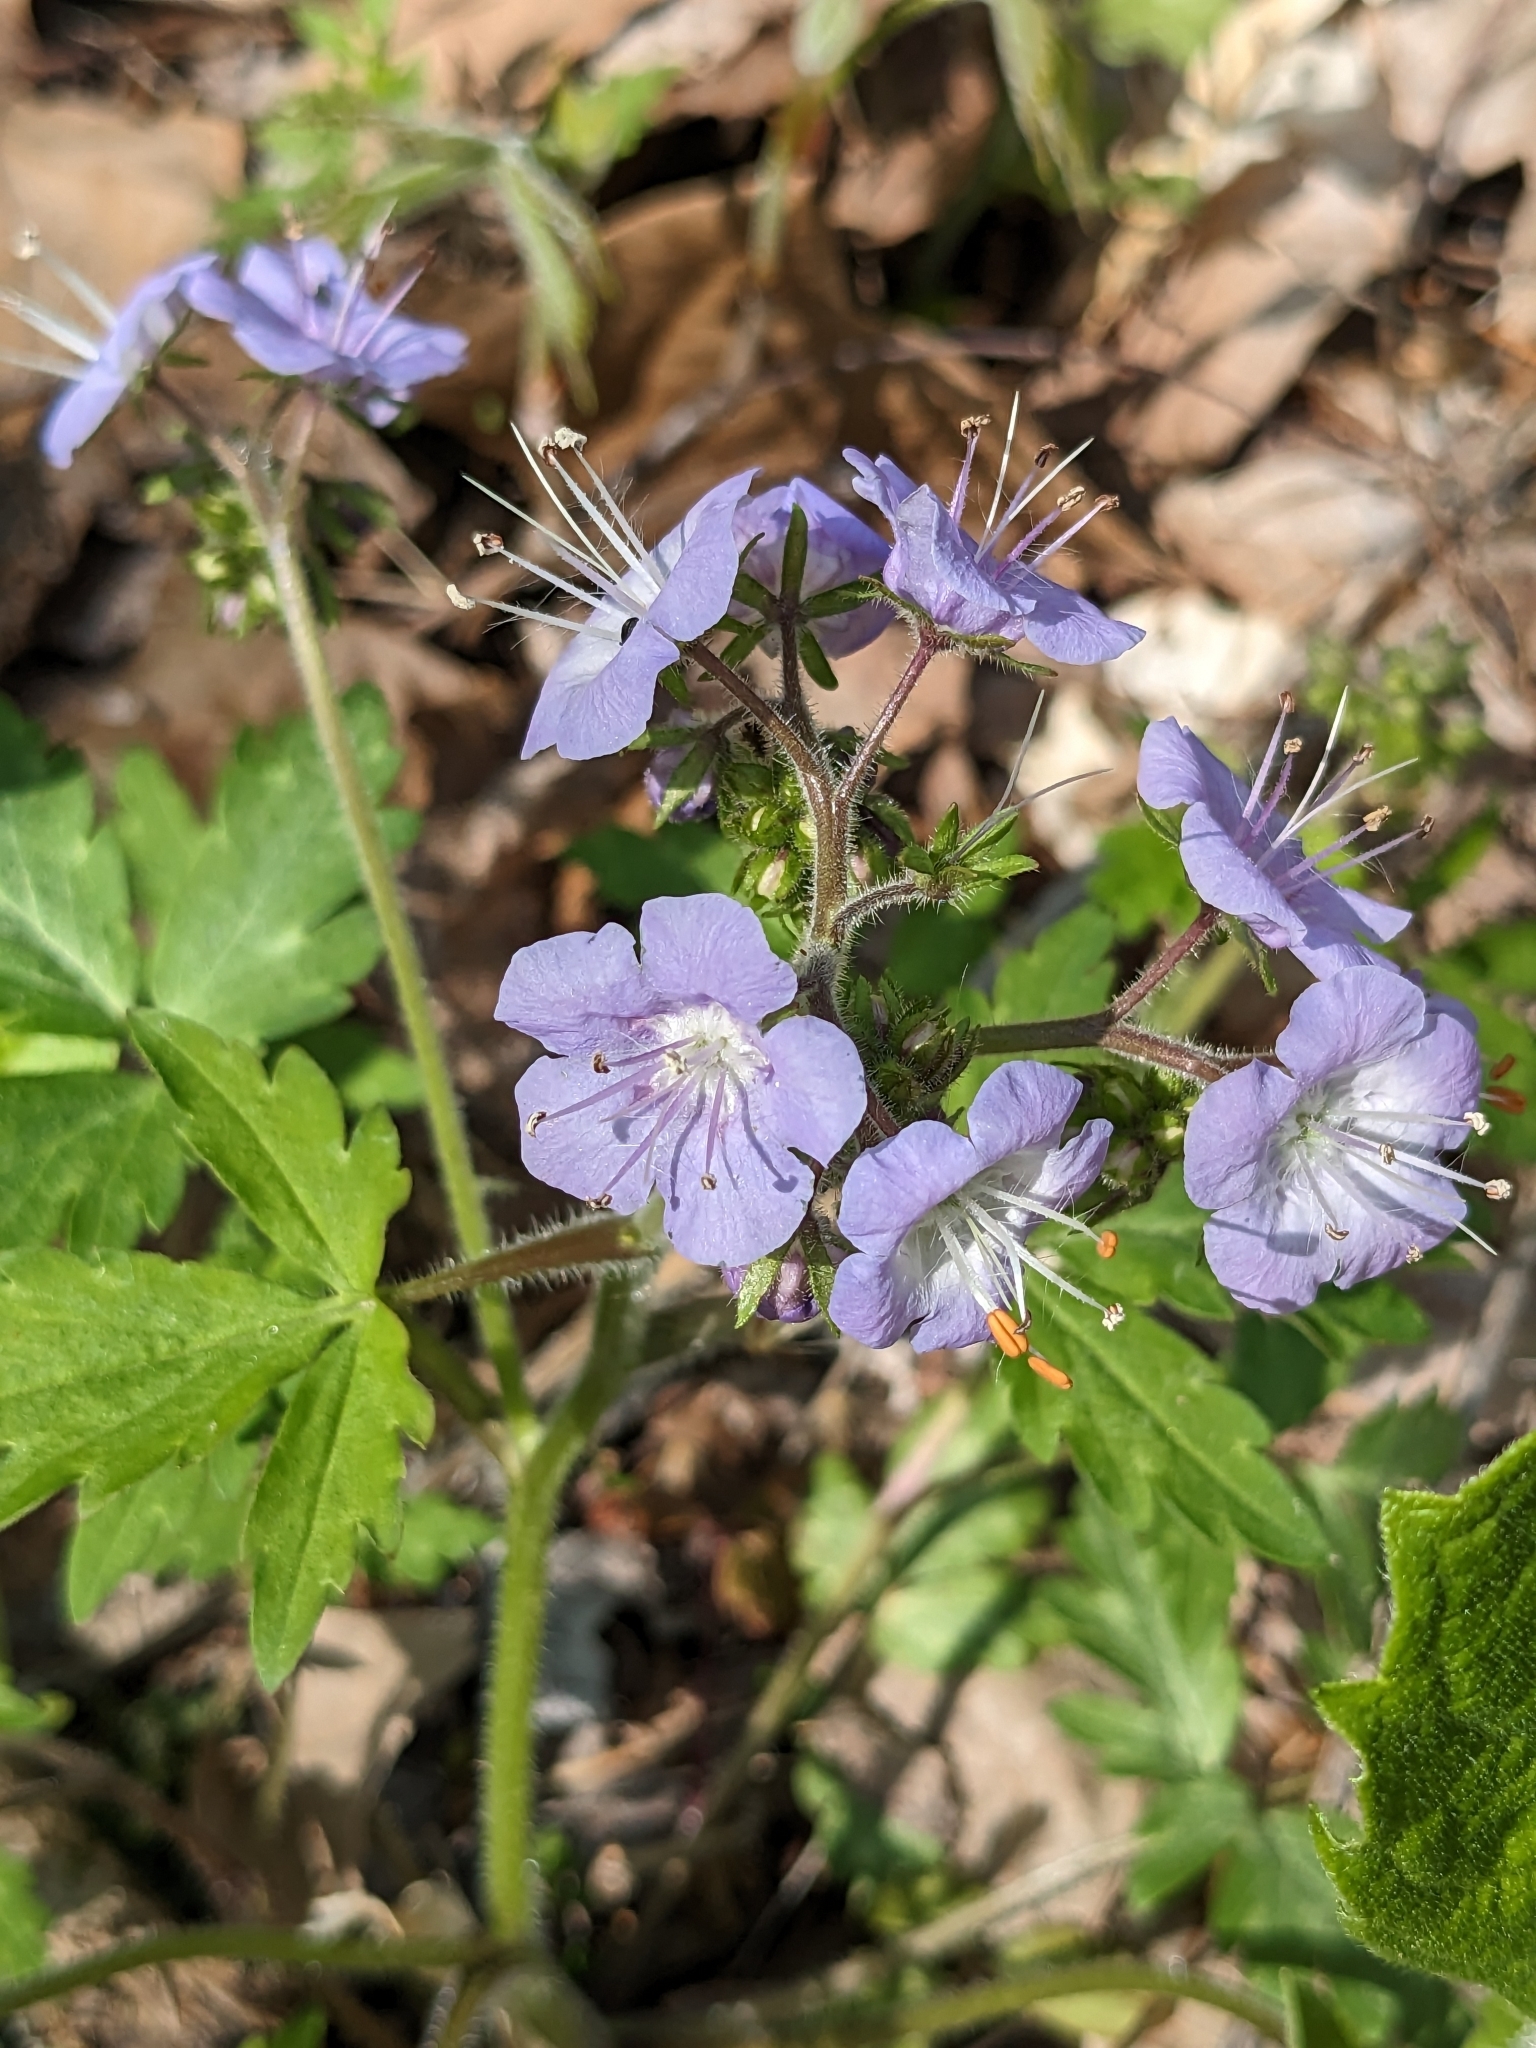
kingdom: Plantae
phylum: Tracheophyta
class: Magnoliopsida
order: Boraginales
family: Hydrophyllaceae
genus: Phacelia
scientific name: Phacelia bipinnatifida
